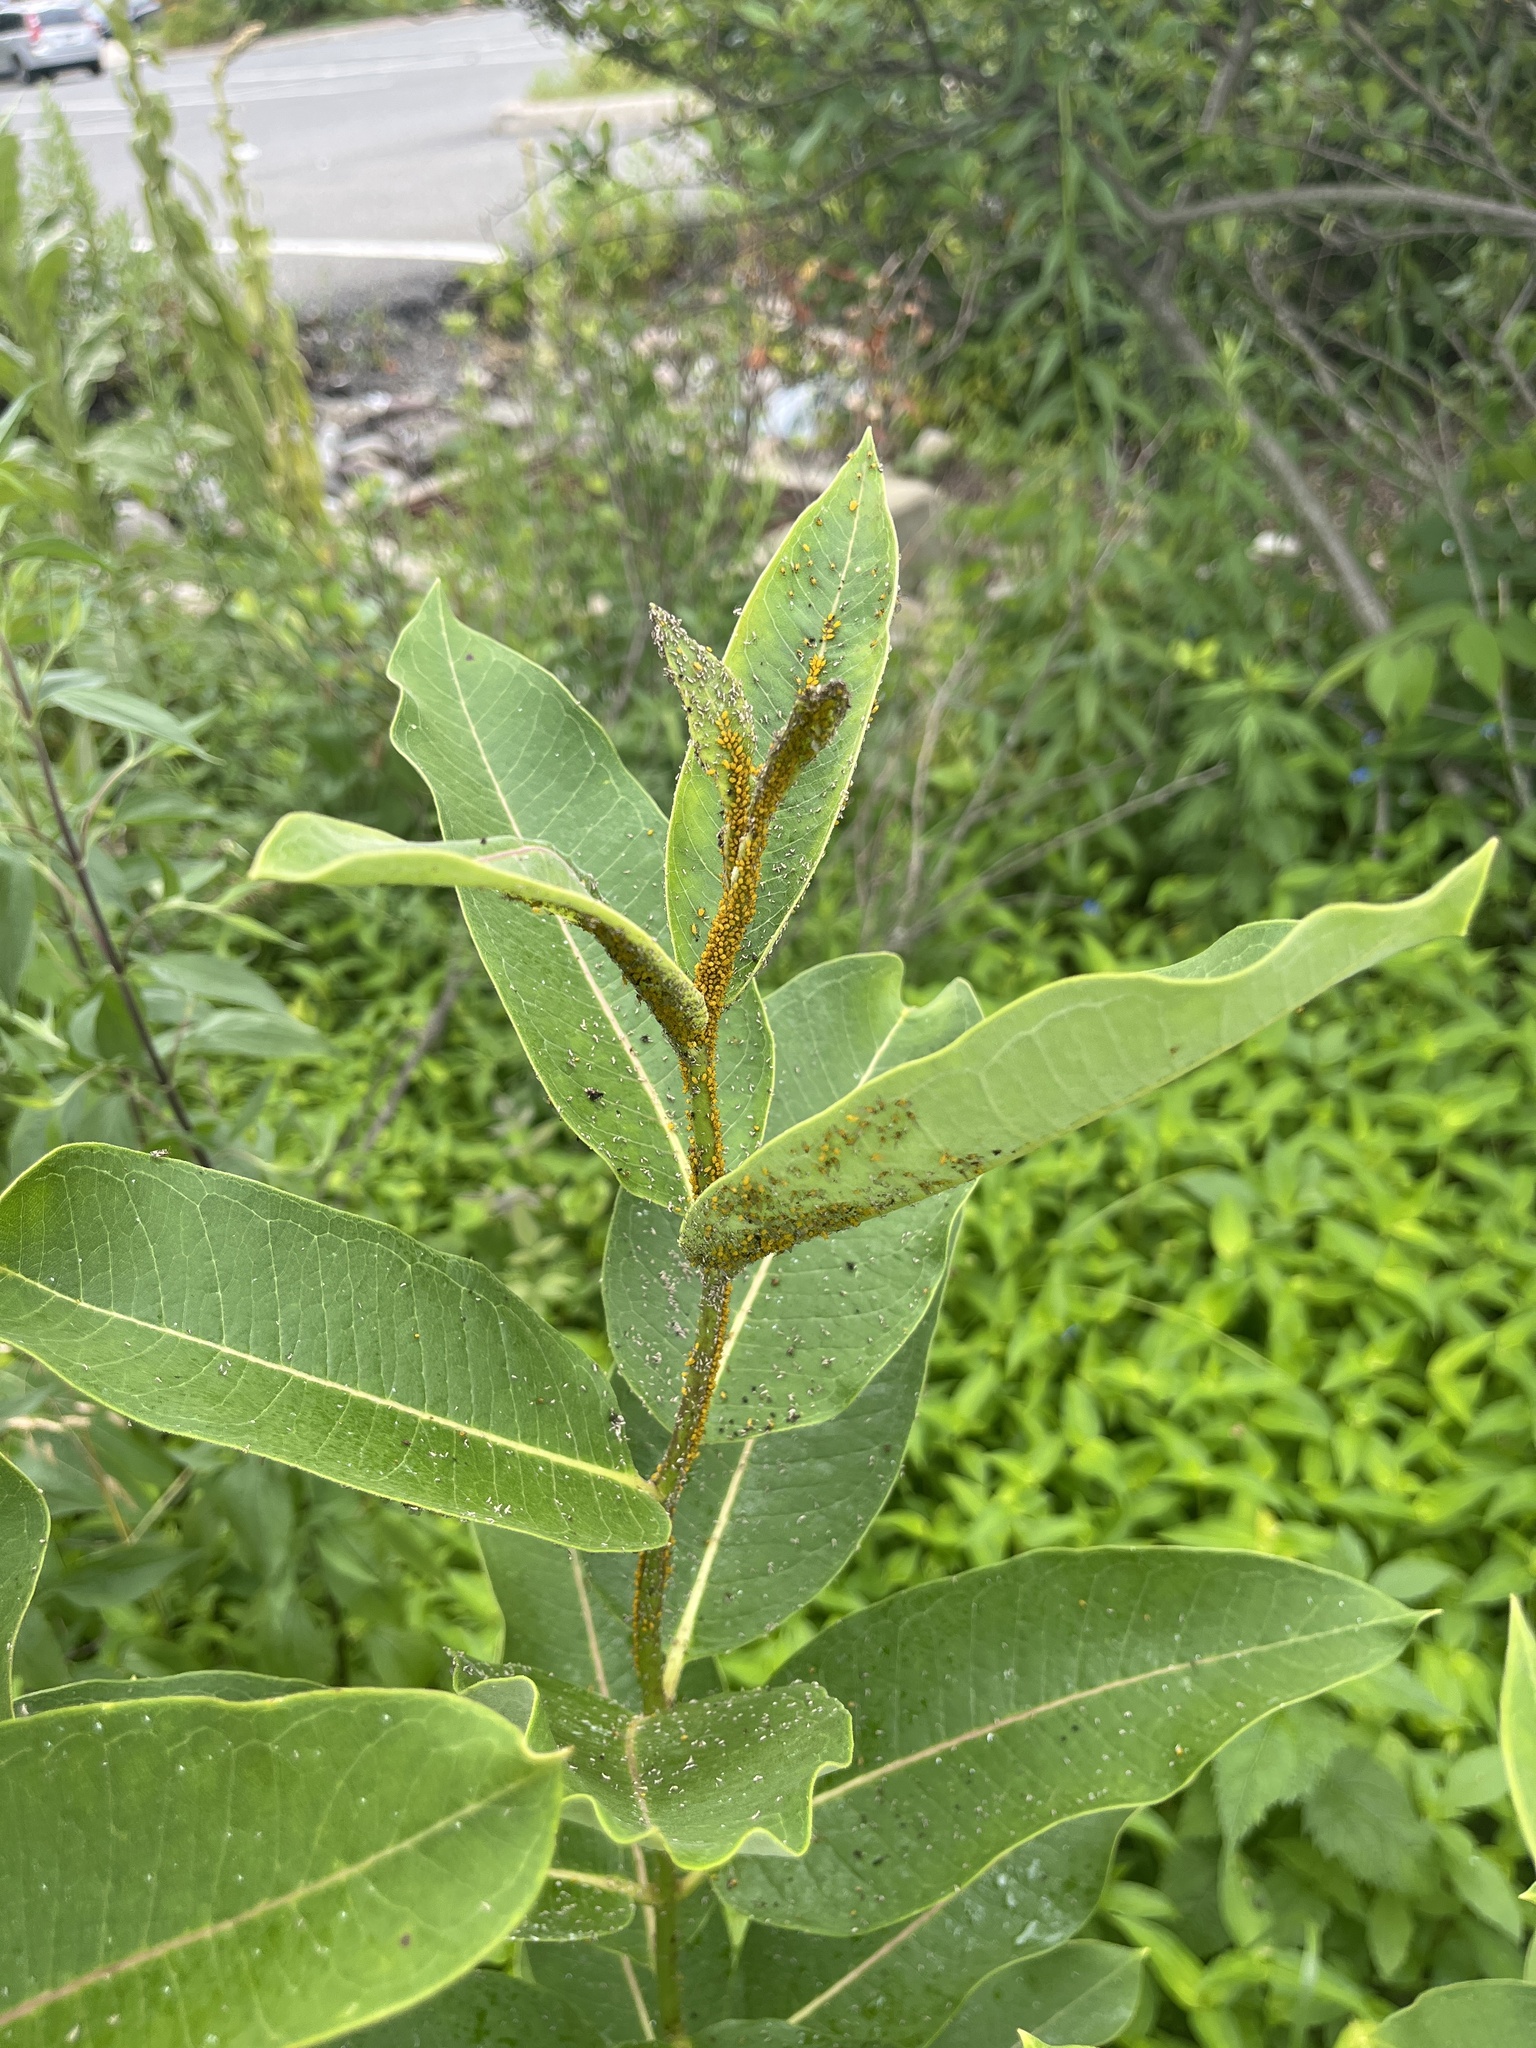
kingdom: Animalia
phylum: Arthropoda
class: Insecta
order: Hemiptera
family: Aphididae
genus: Aphis
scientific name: Aphis nerii
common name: Oleander aphid
